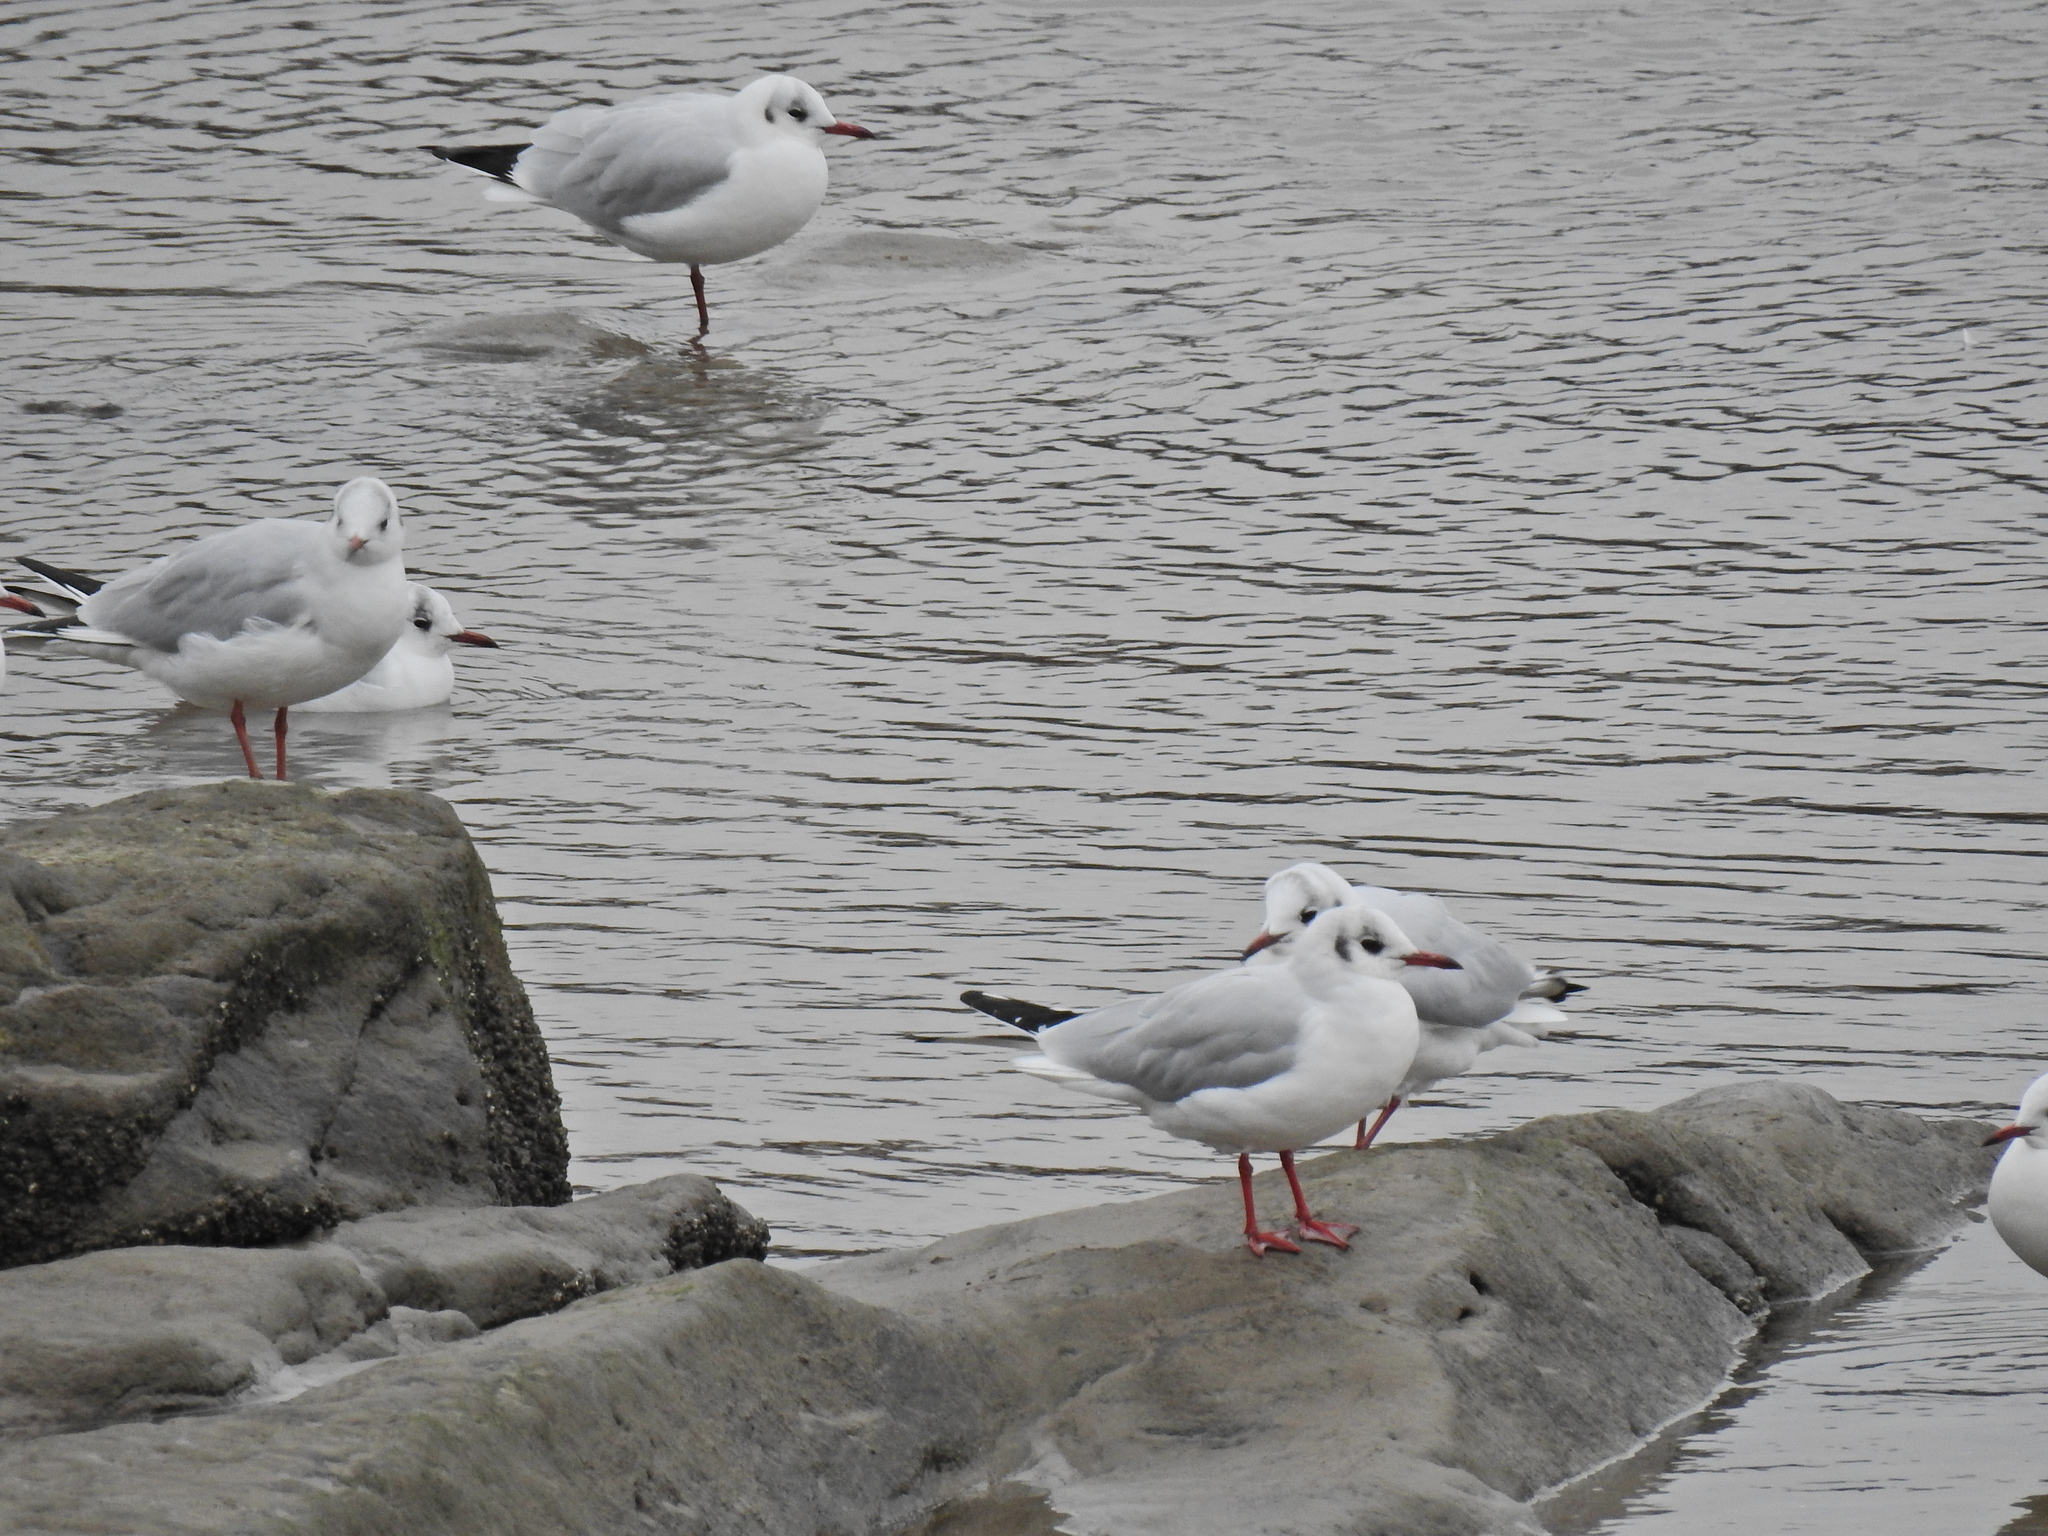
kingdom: Animalia
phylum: Chordata
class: Aves
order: Charadriiformes
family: Laridae
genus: Chroicocephalus
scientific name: Chroicocephalus ridibundus
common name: Black-headed gull
